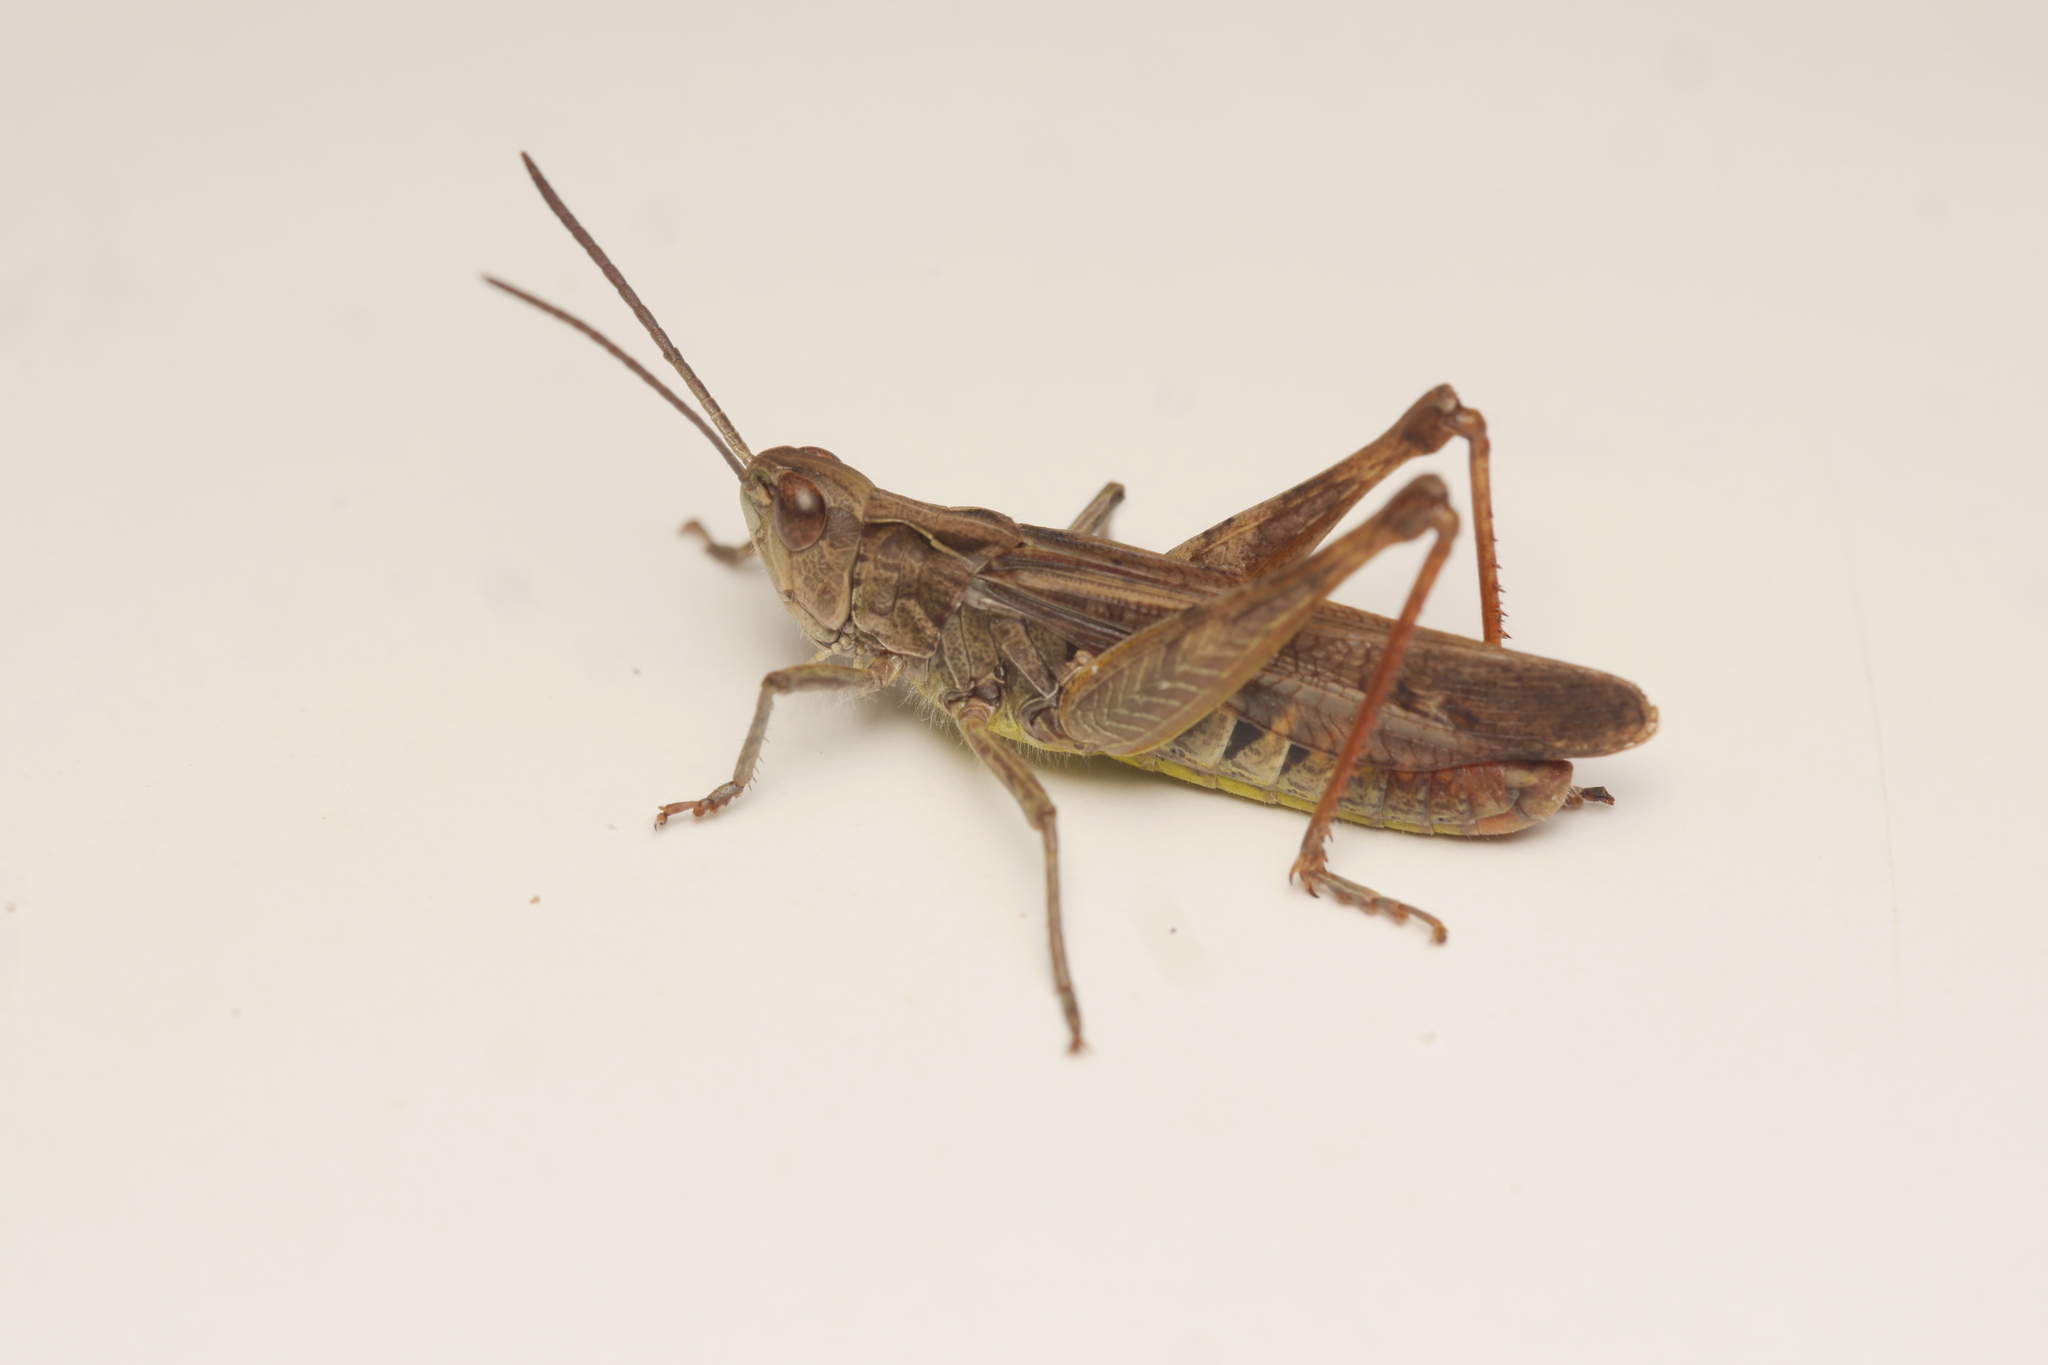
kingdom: Animalia
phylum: Arthropoda
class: Insecta
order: Orthoptera
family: Acrididae
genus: Chorthippus
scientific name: Chorthippus biguttulus
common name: Bow-winged grasshopper
